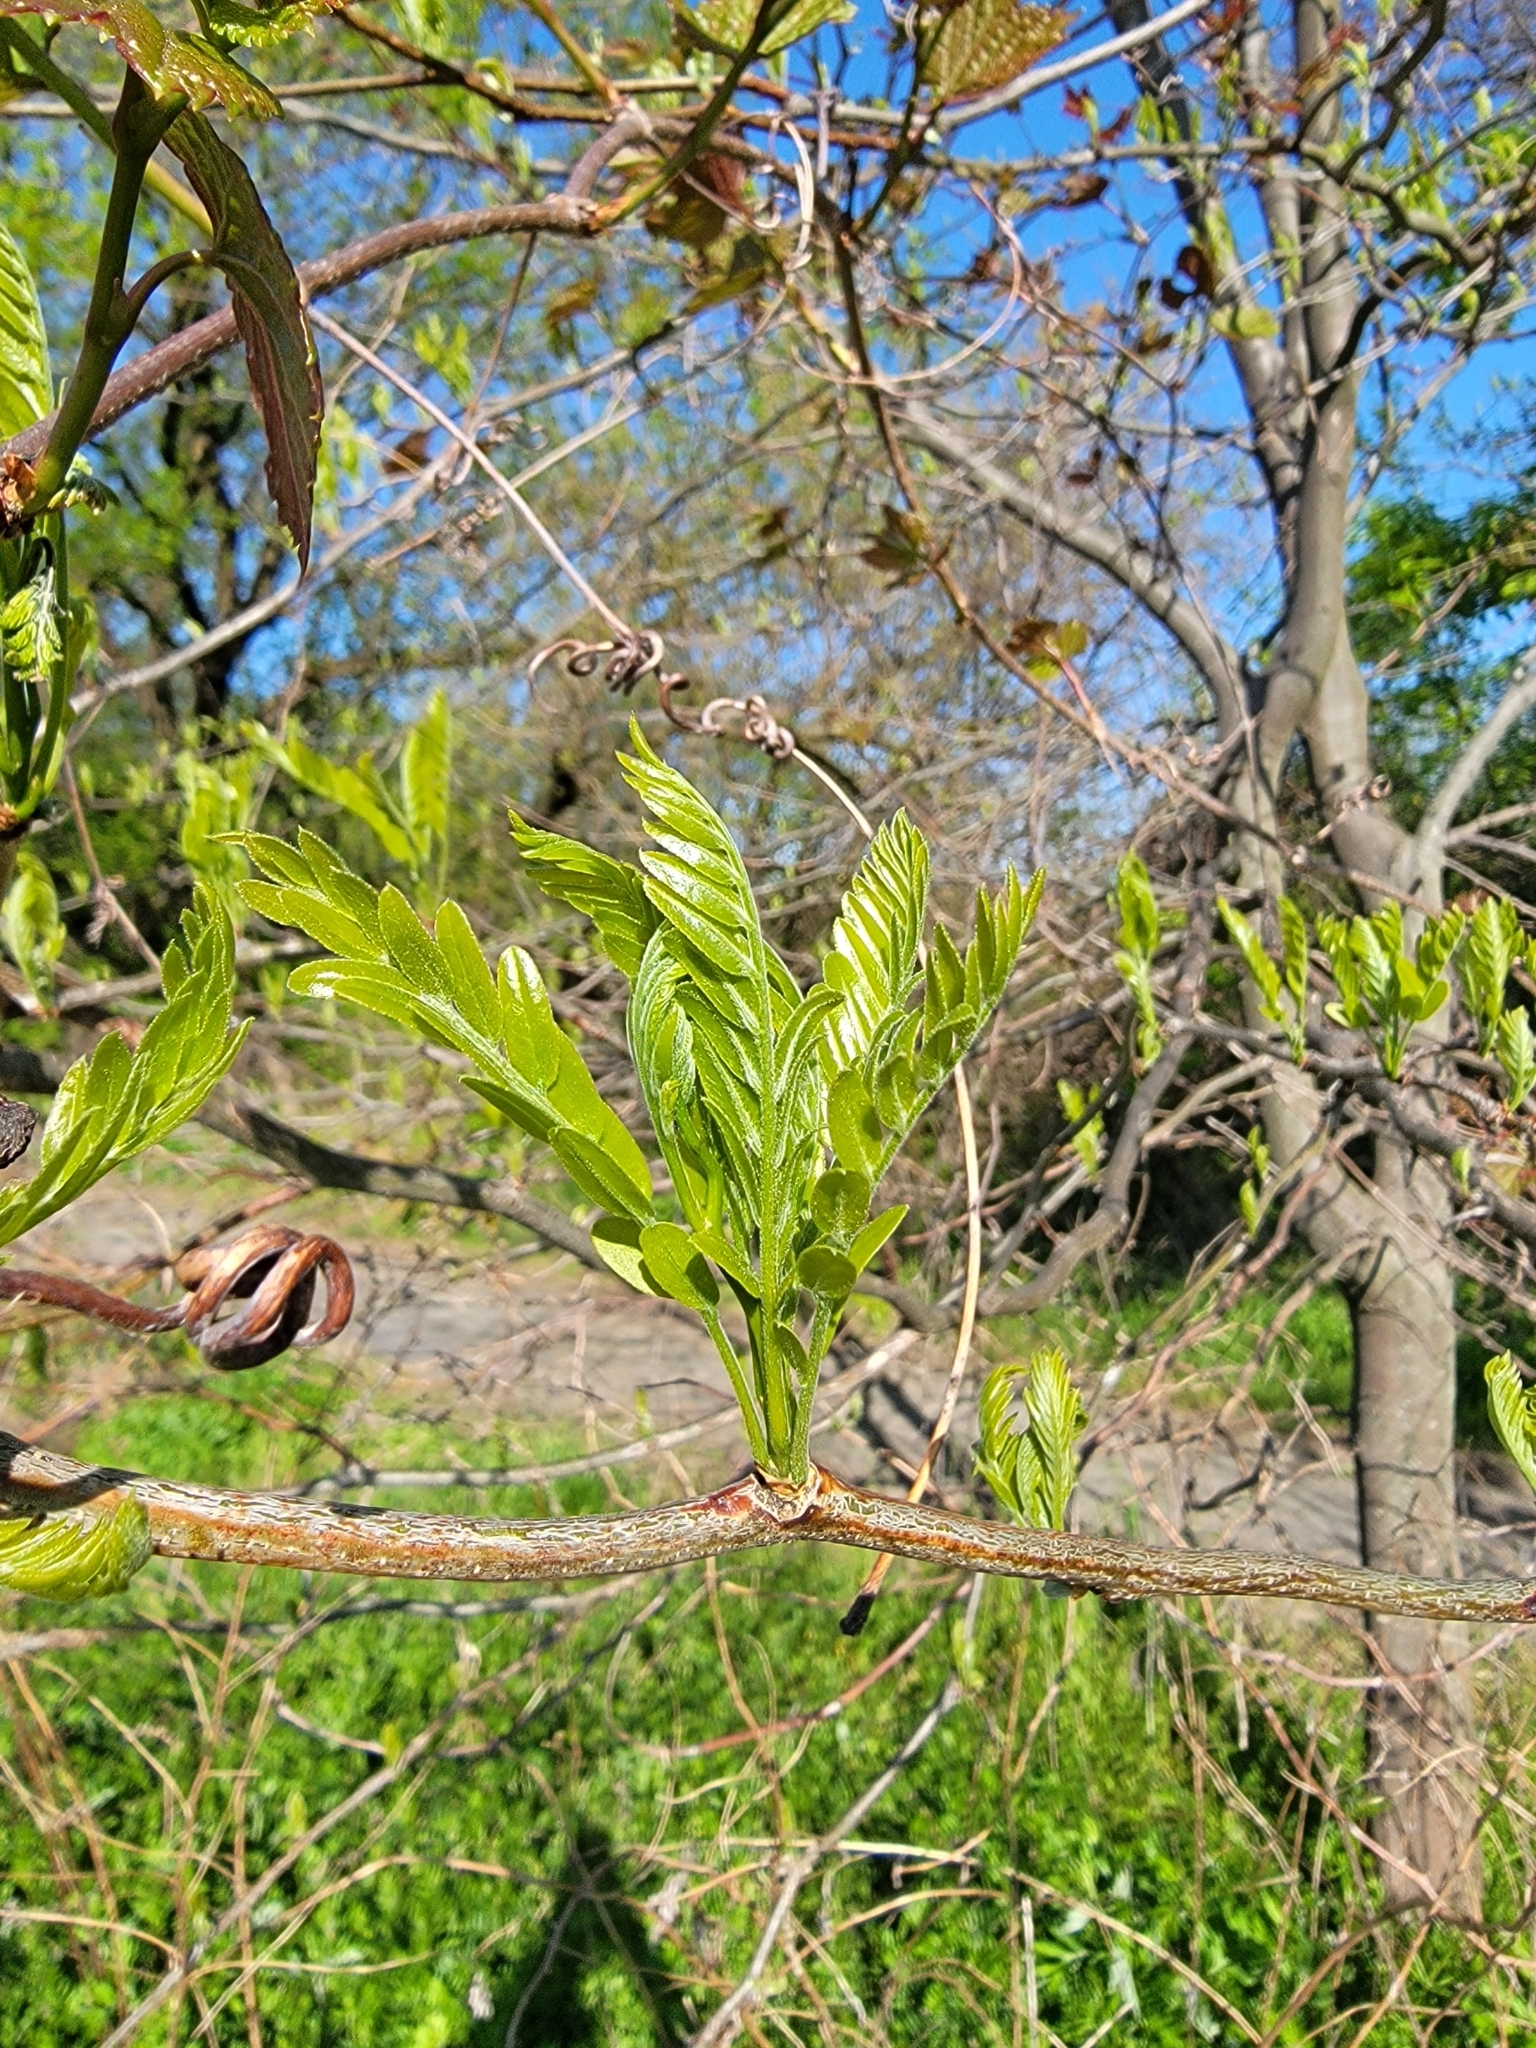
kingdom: Plantae
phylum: Tracheophyta
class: Magnoliopsida
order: Fabales
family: Fabaceae
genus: Gleditsia
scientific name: Gleditsia triacanthos
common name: Common honeylocust
